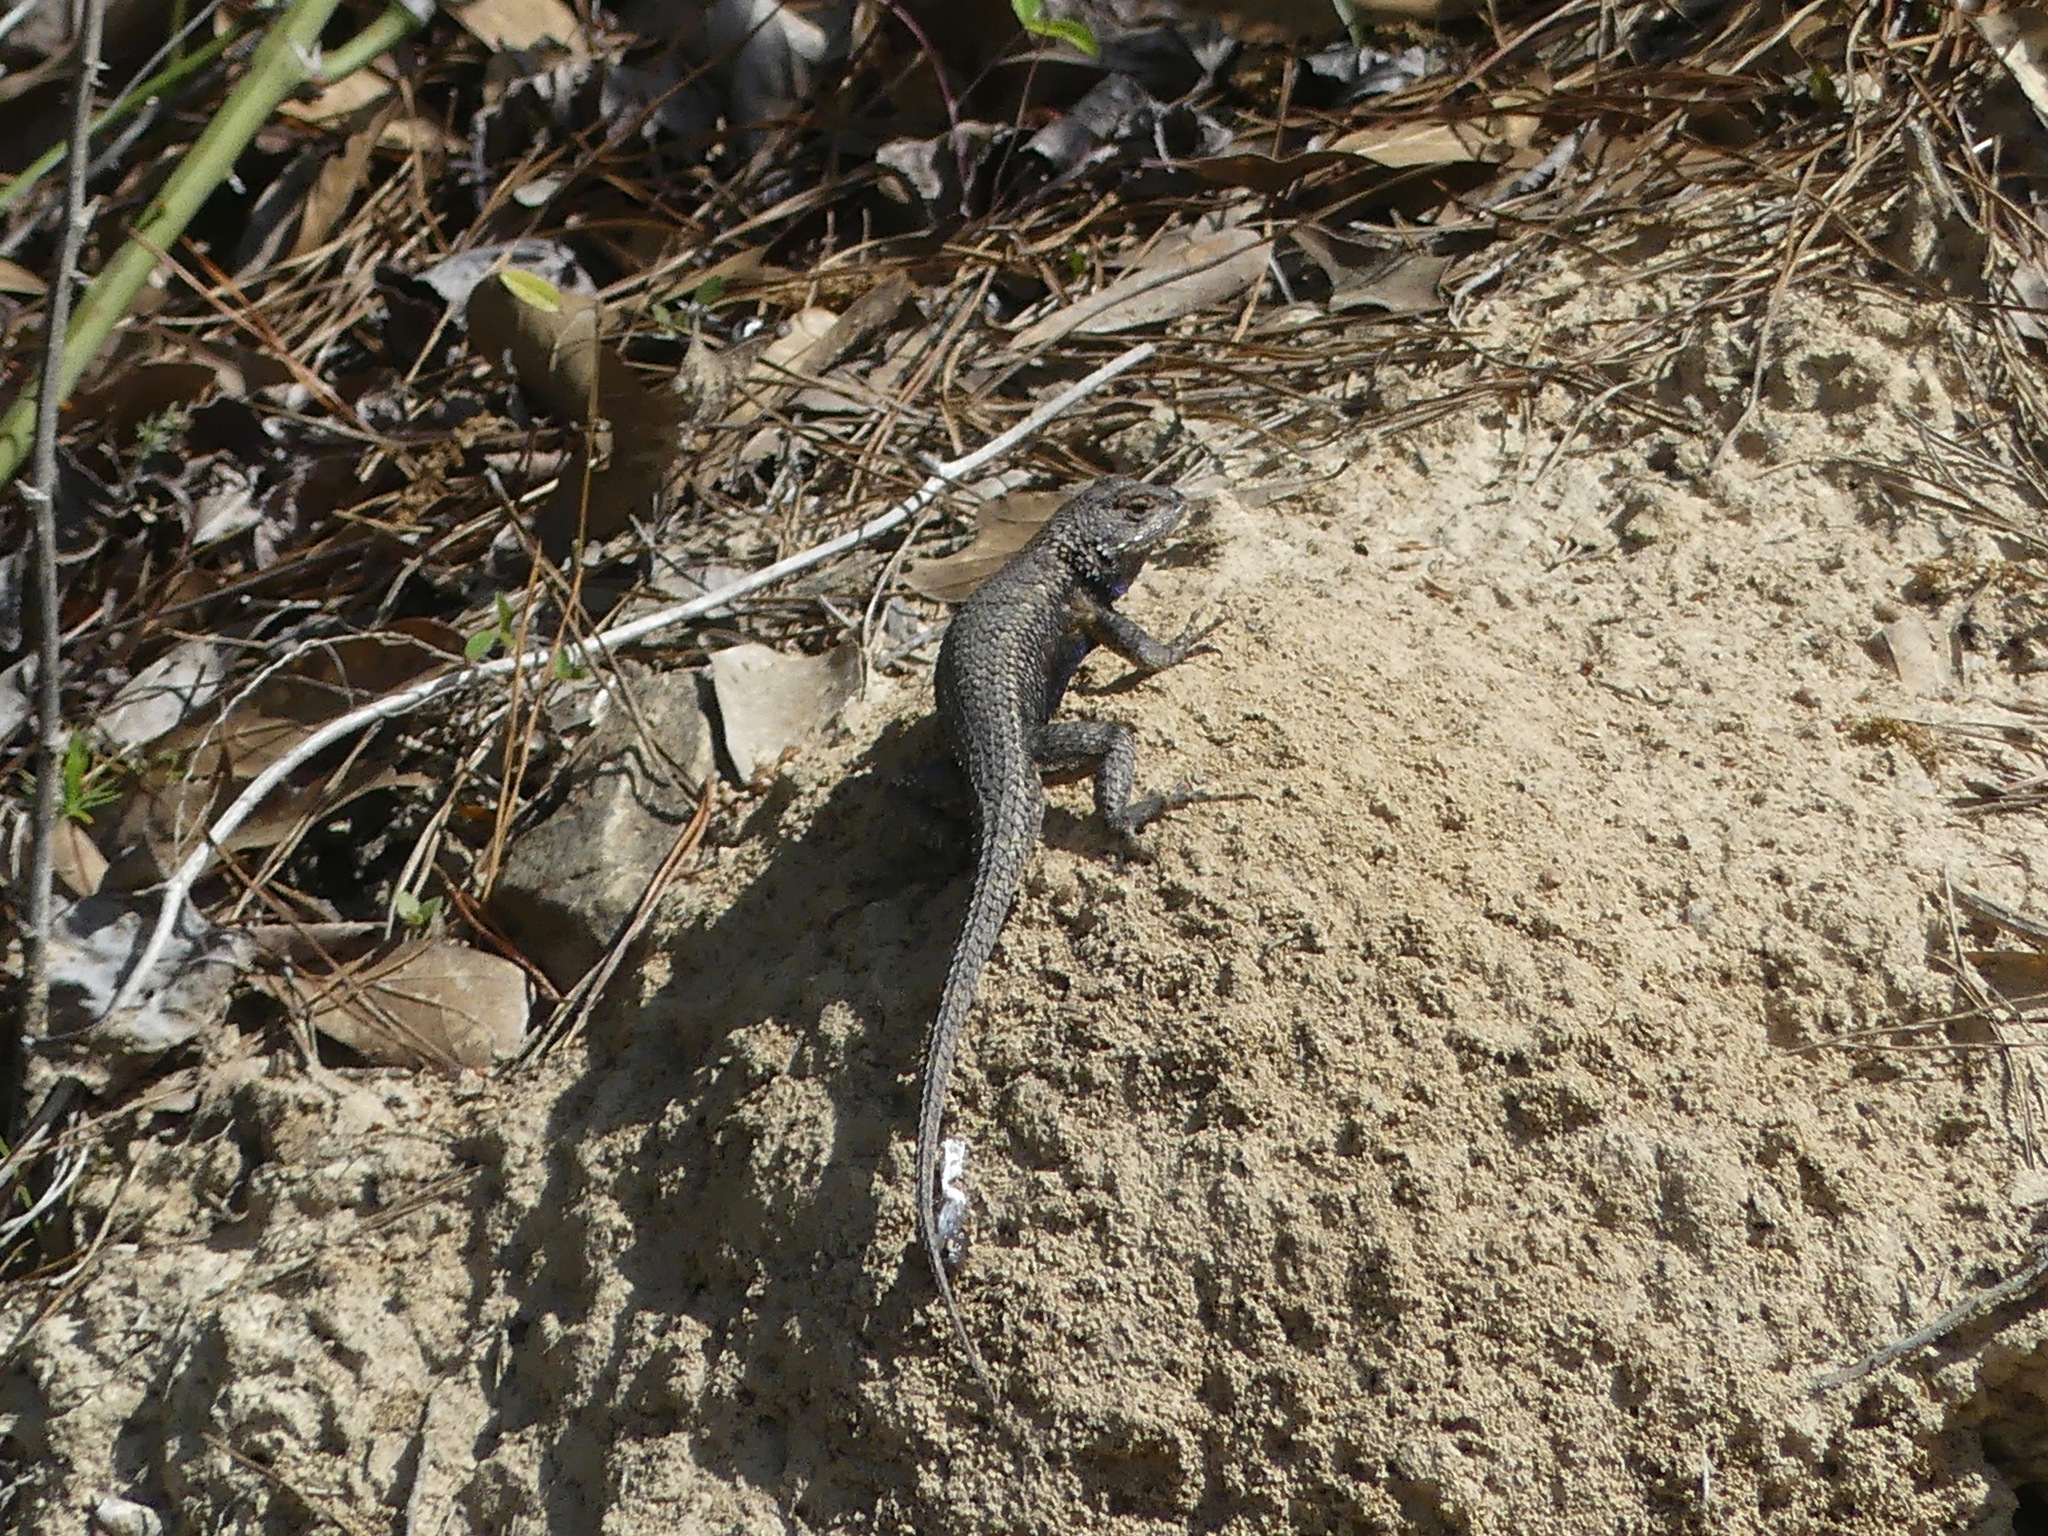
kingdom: Animalia
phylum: Chordata
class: Squamata
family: Phrynosomatidae
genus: Sceloporus
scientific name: Sceloporus consobrinus
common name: Southern prairie lizard
